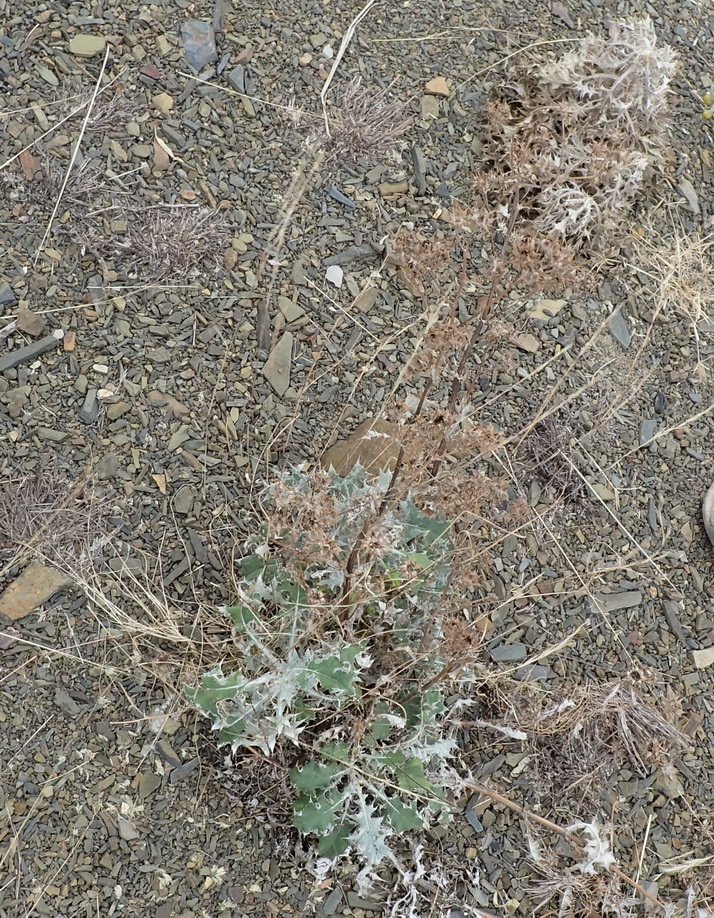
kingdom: Plantae
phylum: Tracheophyta
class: Magnoliopsida
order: Asterales
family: Asteraceae
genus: Berkheya
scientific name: Berkheya heterophylla
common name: Prickly gousblom
